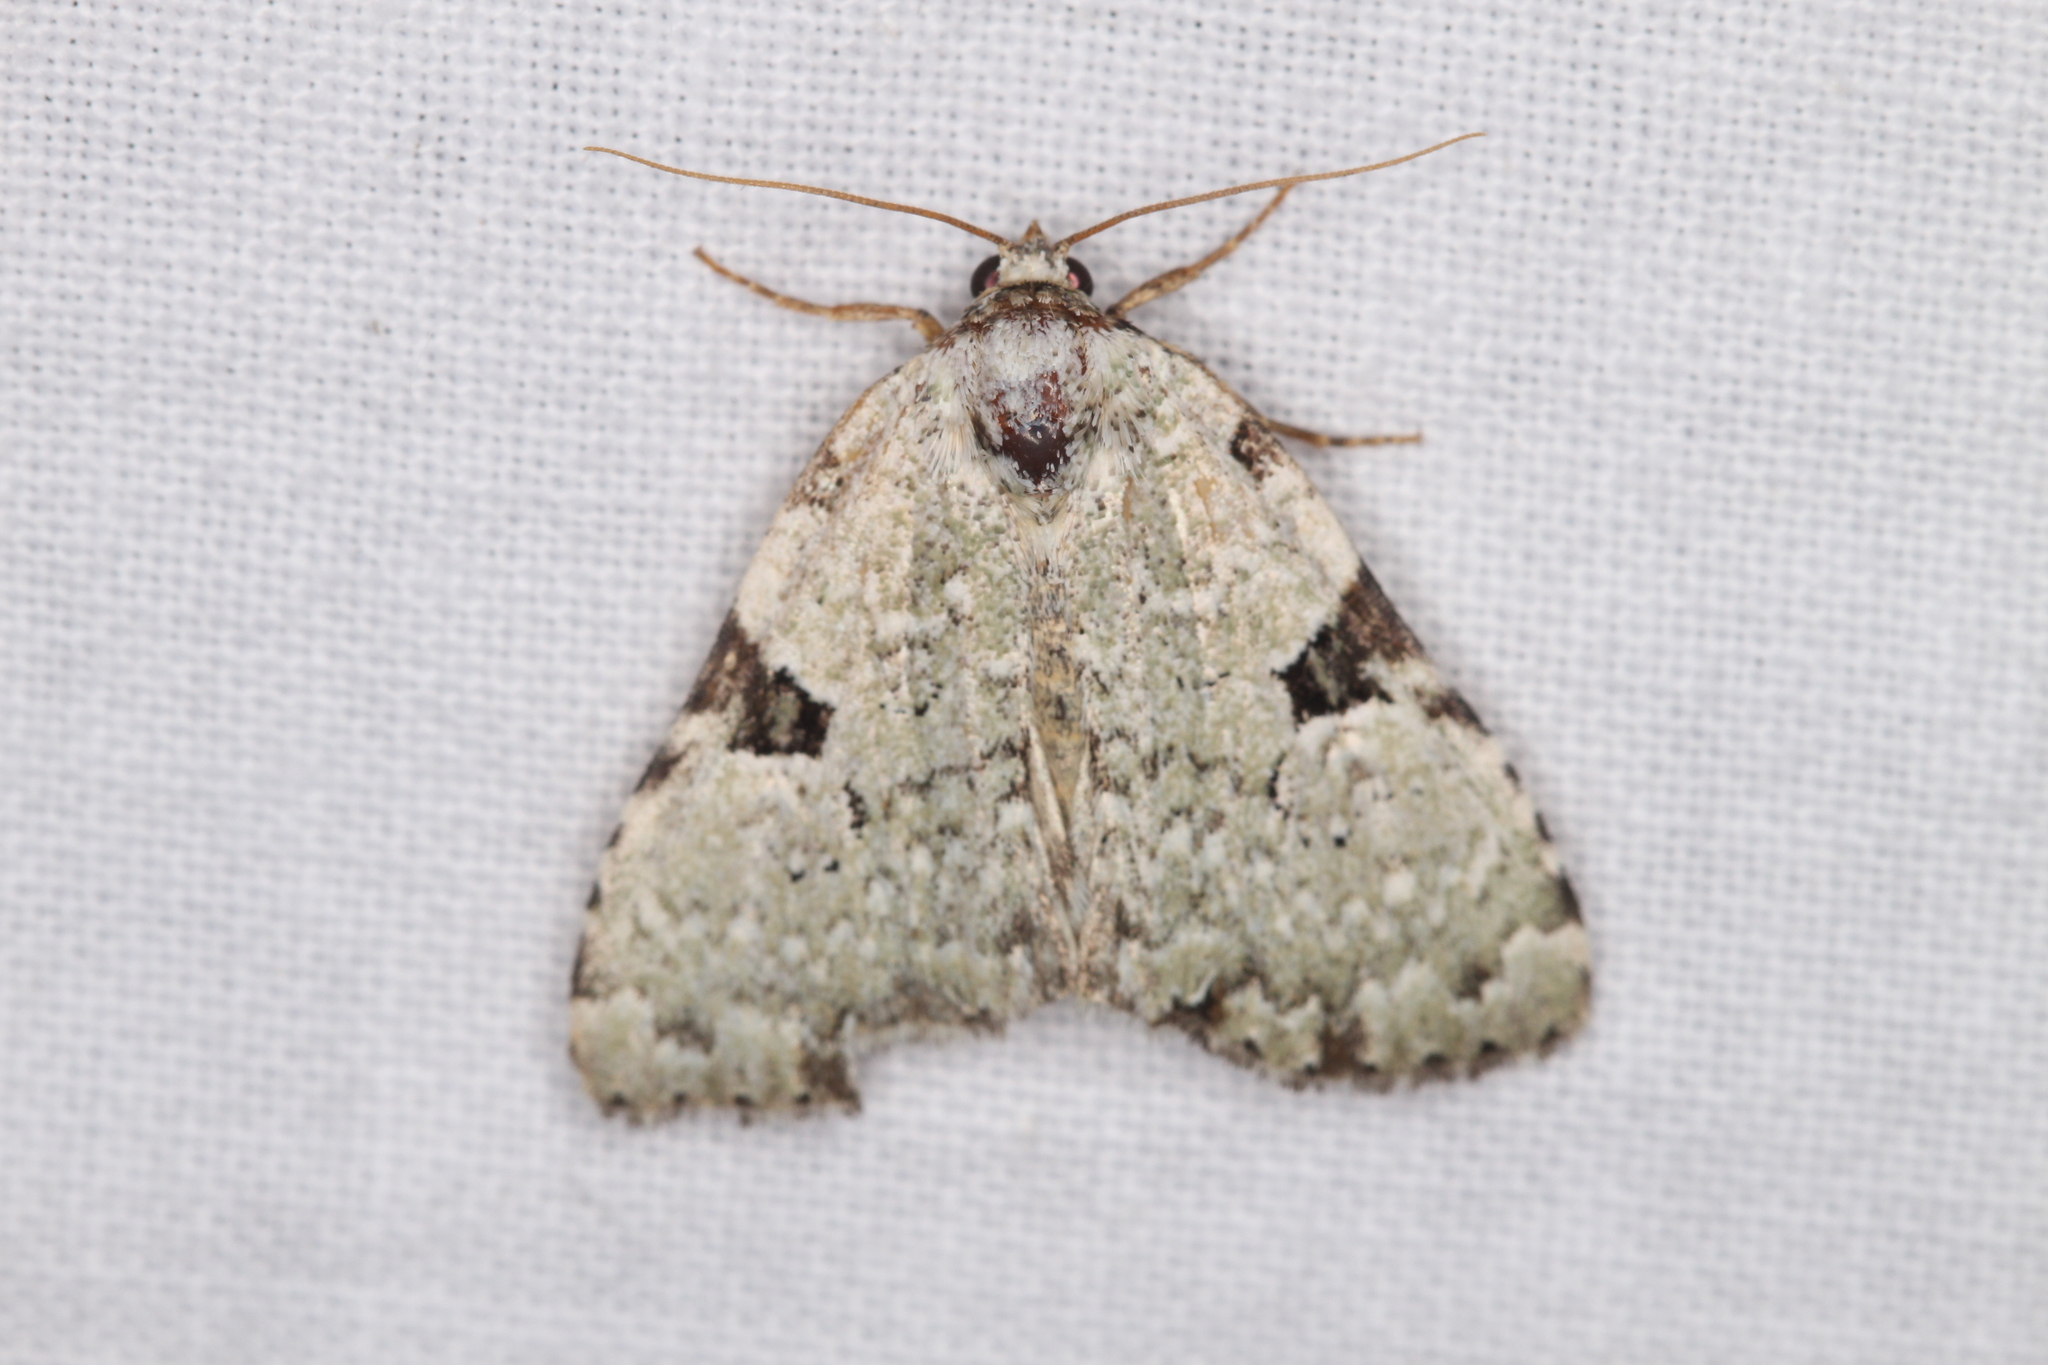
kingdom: Animalia
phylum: Arthropoda
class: Insecta
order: Lepidoptera
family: Noctuidae
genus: Leuconycta
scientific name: Leuconycta diphteroides
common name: Green leuconycta moth
